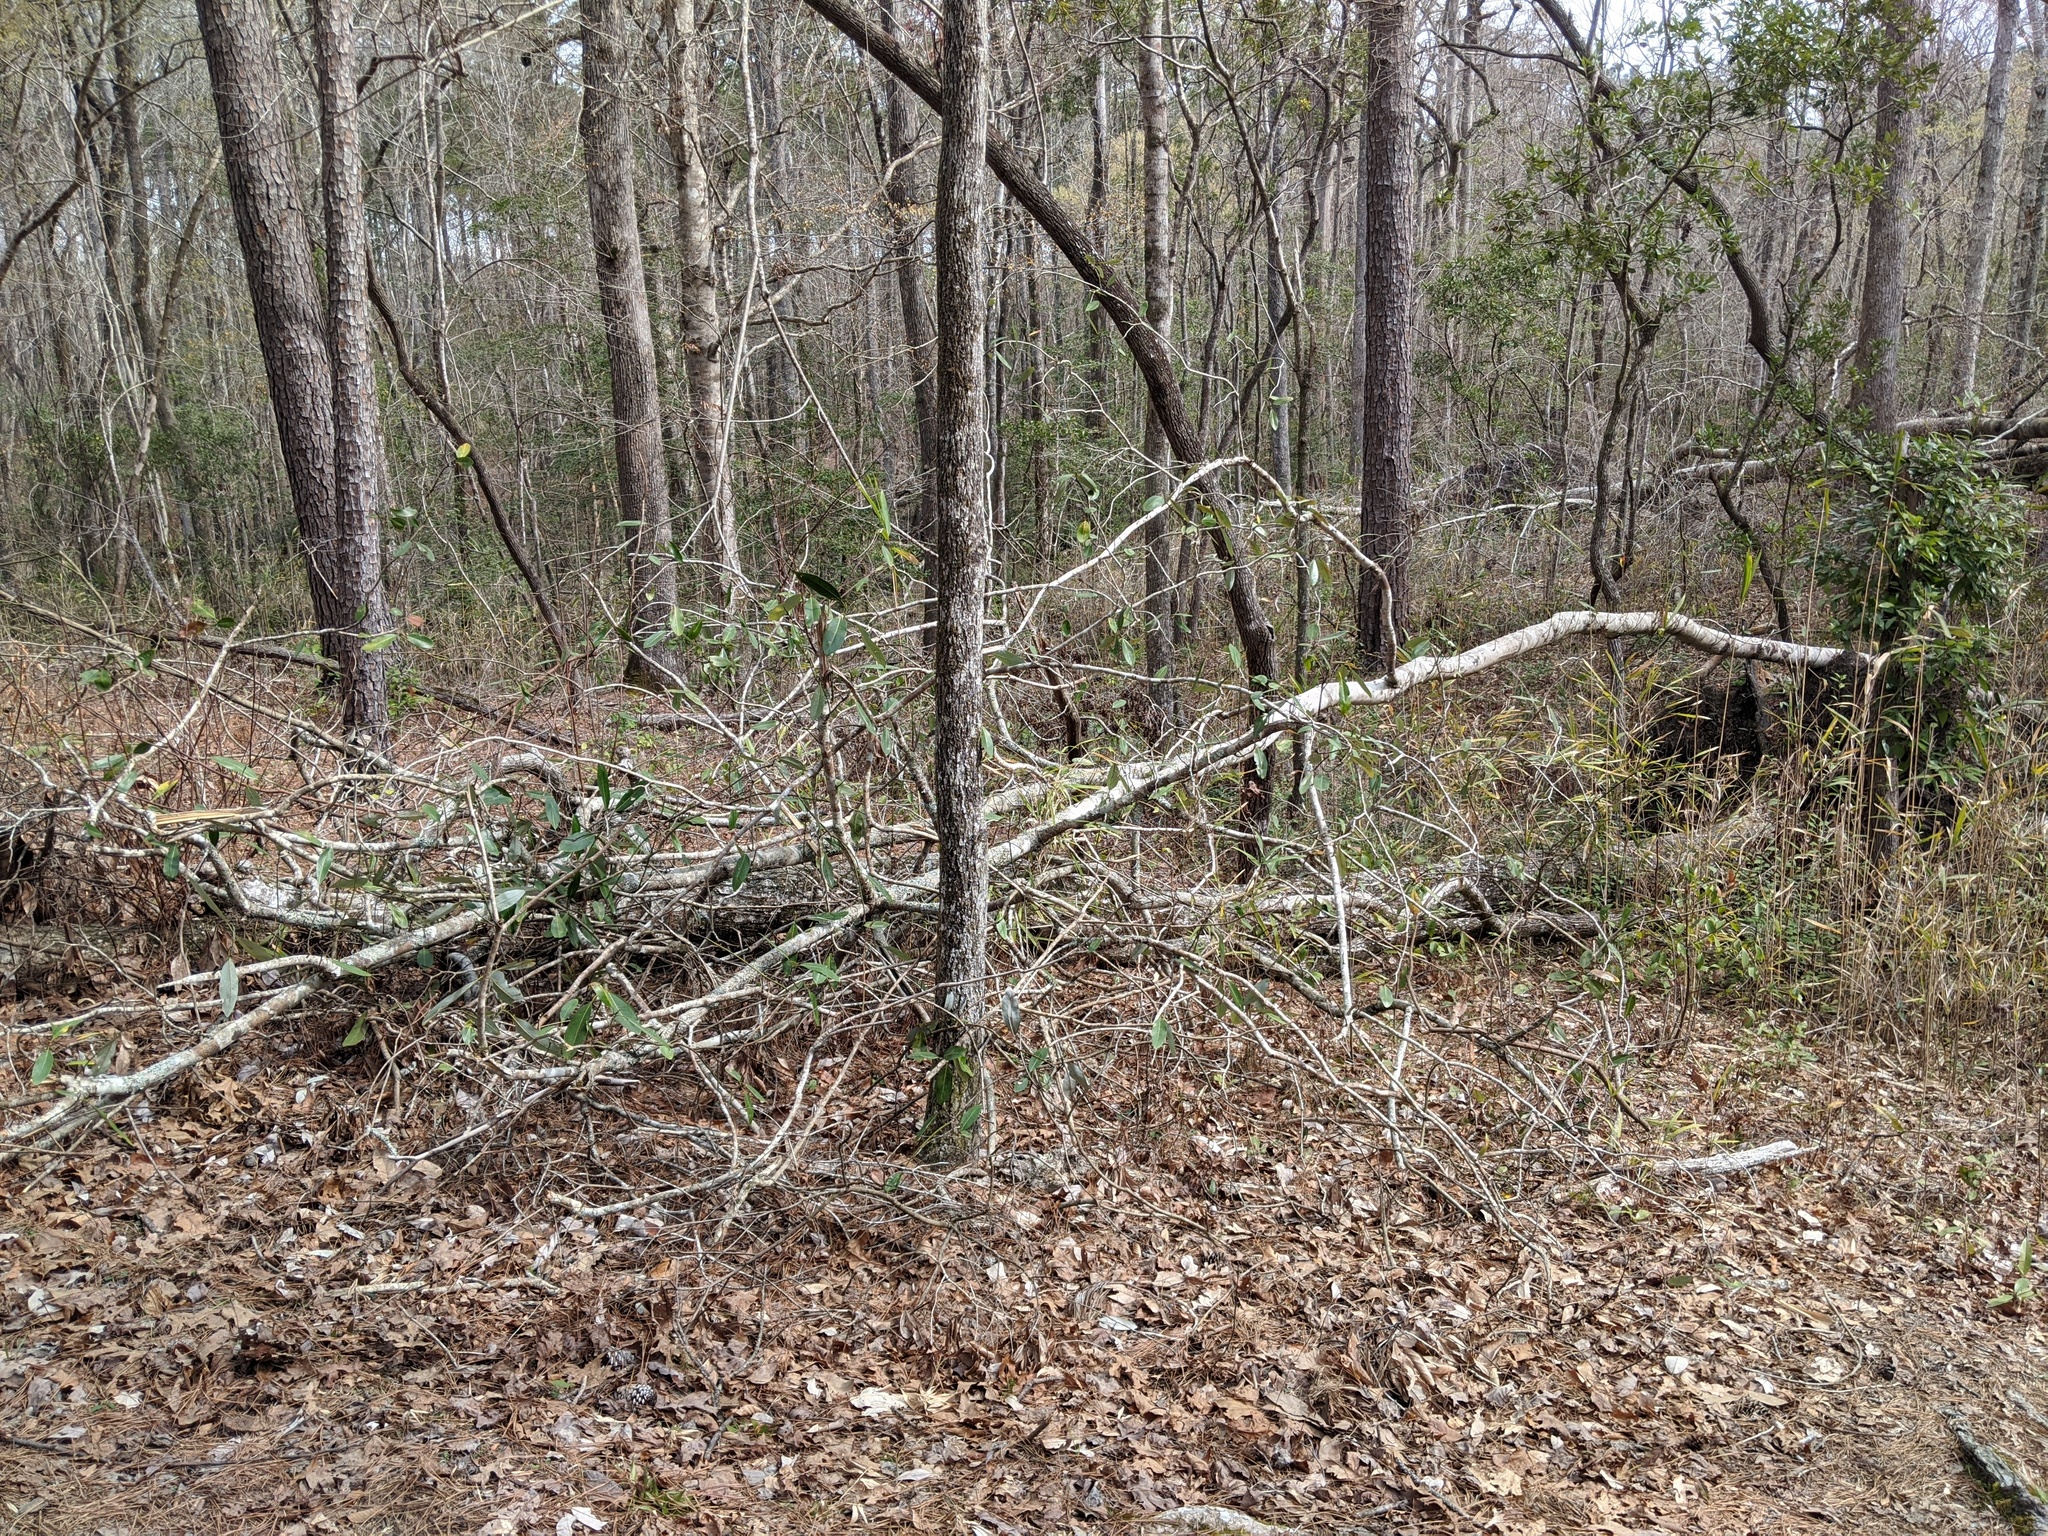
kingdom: Plantae
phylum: Tracheophyta
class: Magnoliopsida
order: Magnoliales
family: Magnoliaceae
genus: Magnolia
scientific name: Magnolia virginiana
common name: Swamp bay
